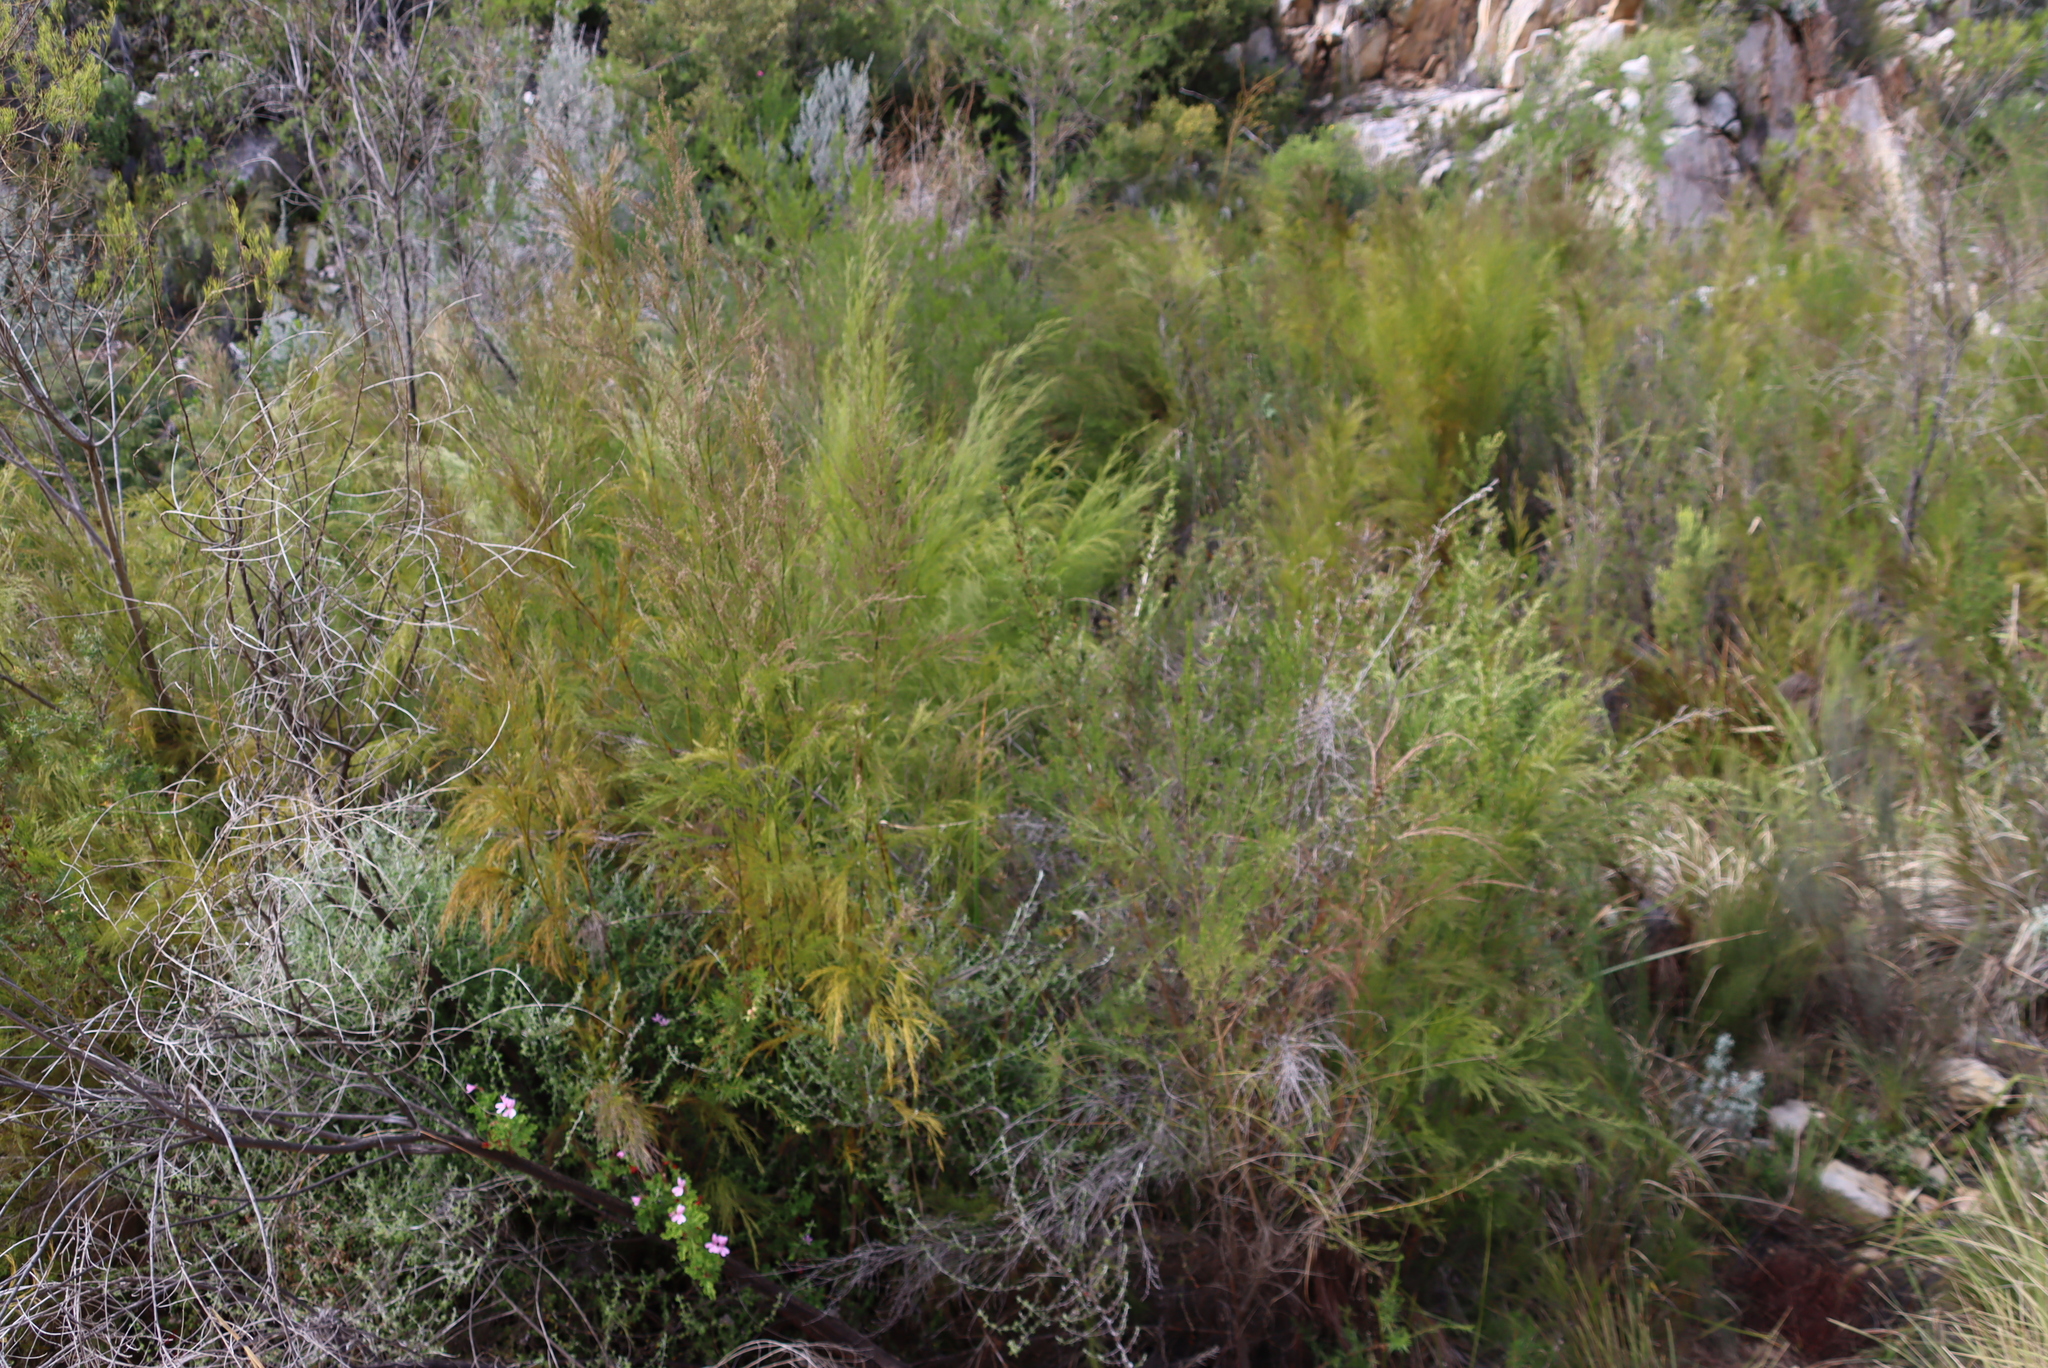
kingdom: Plantae
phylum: Tracheophyta
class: Liliopsida
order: Poales
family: Restionaceae
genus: Restio
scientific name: Restio paniculatus
